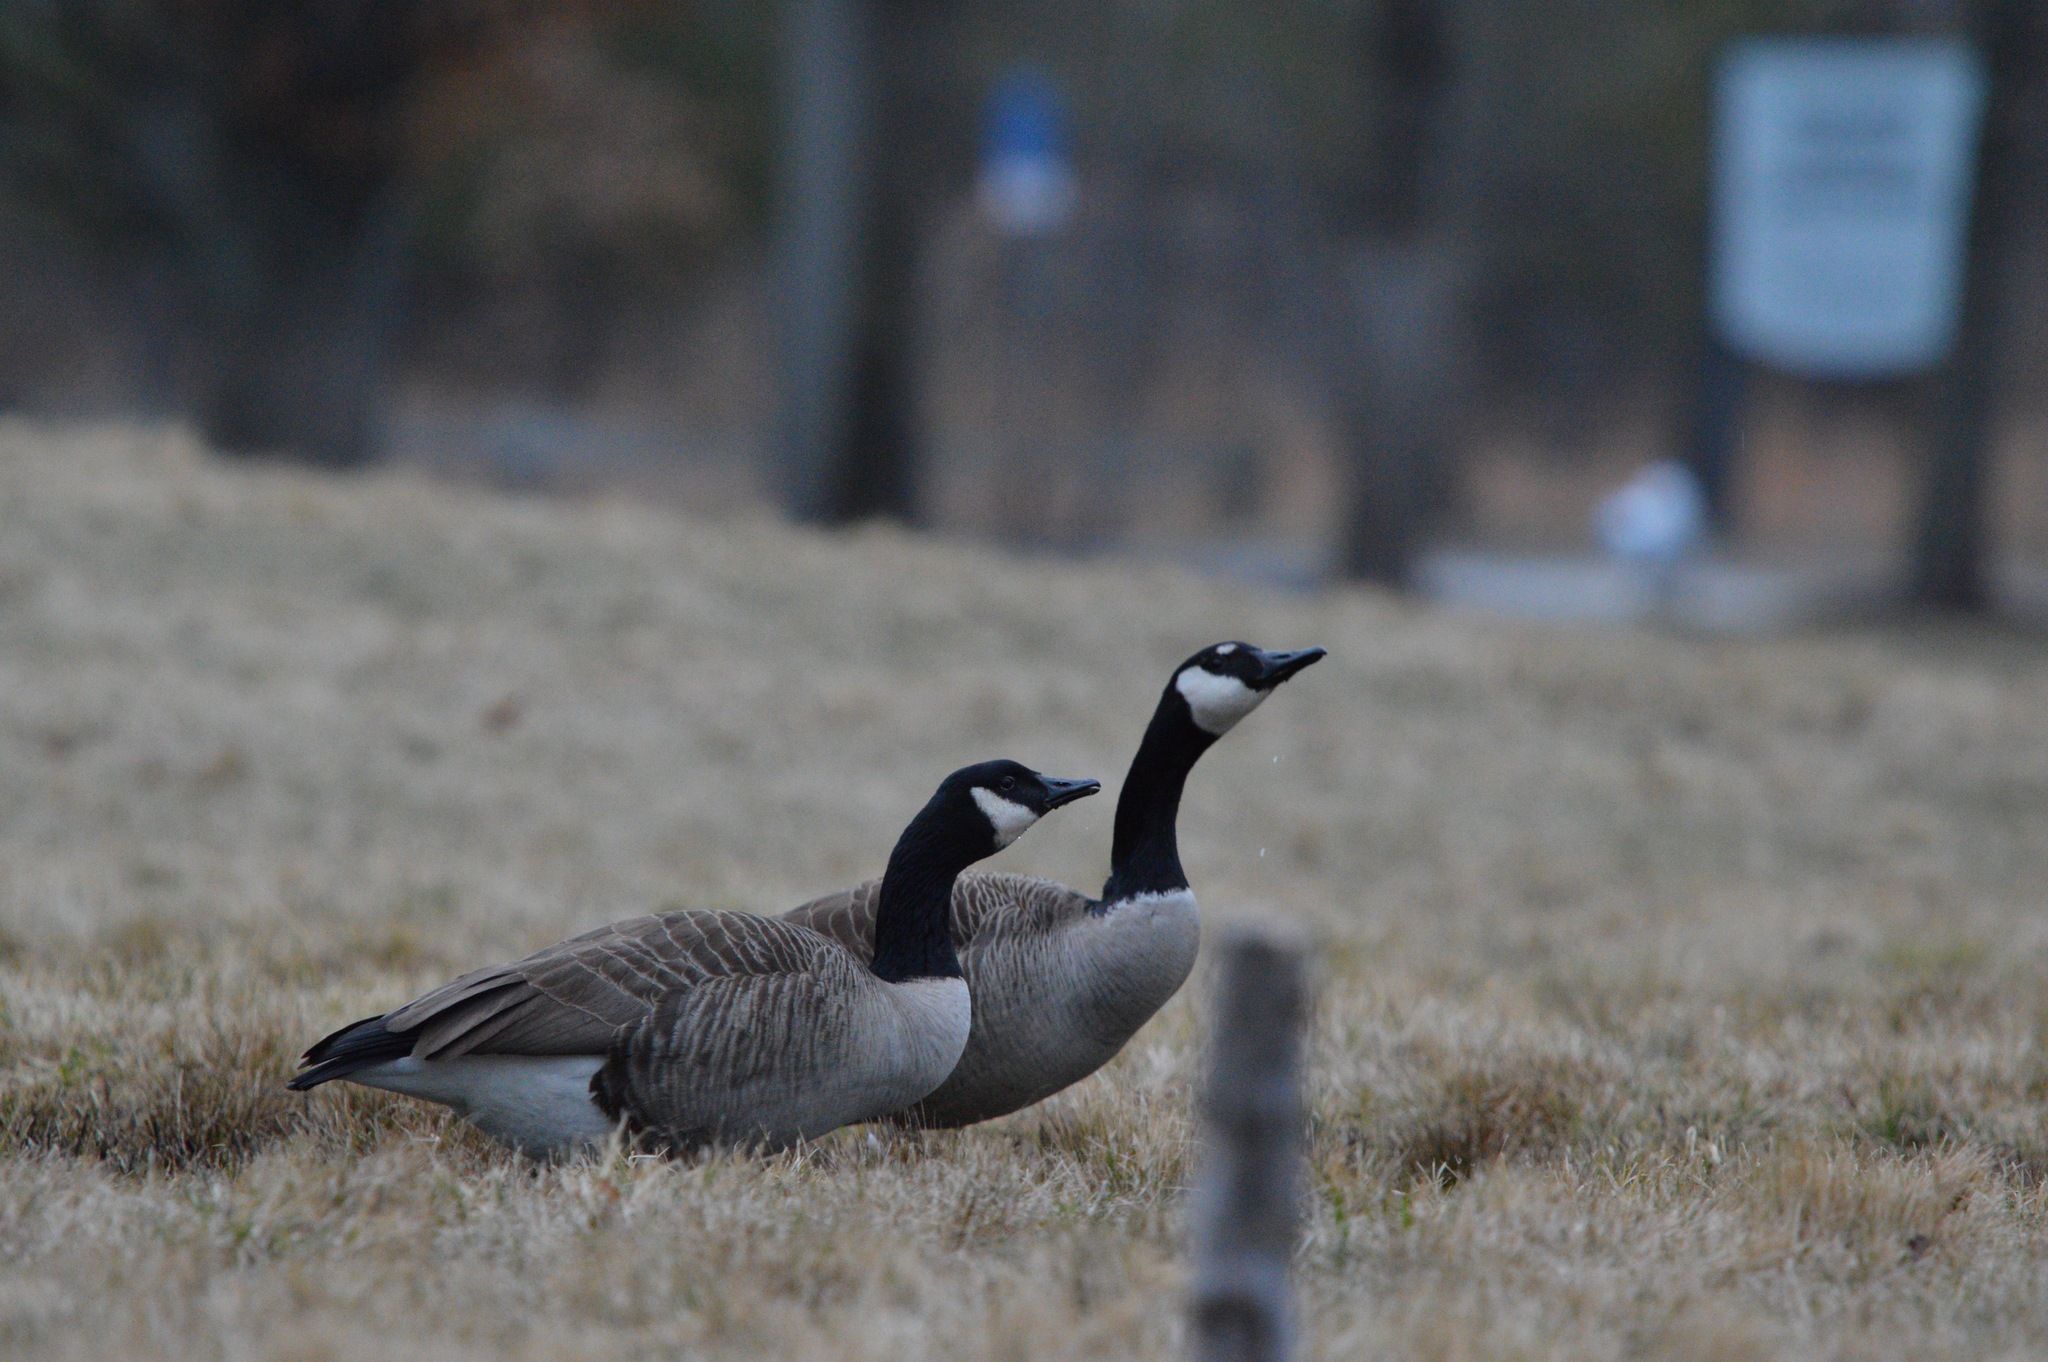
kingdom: Animalia
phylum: Chordata
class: Aves
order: Anseriformes
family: Anatidae
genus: Branta
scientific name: Branta canadensis
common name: Canada goose
